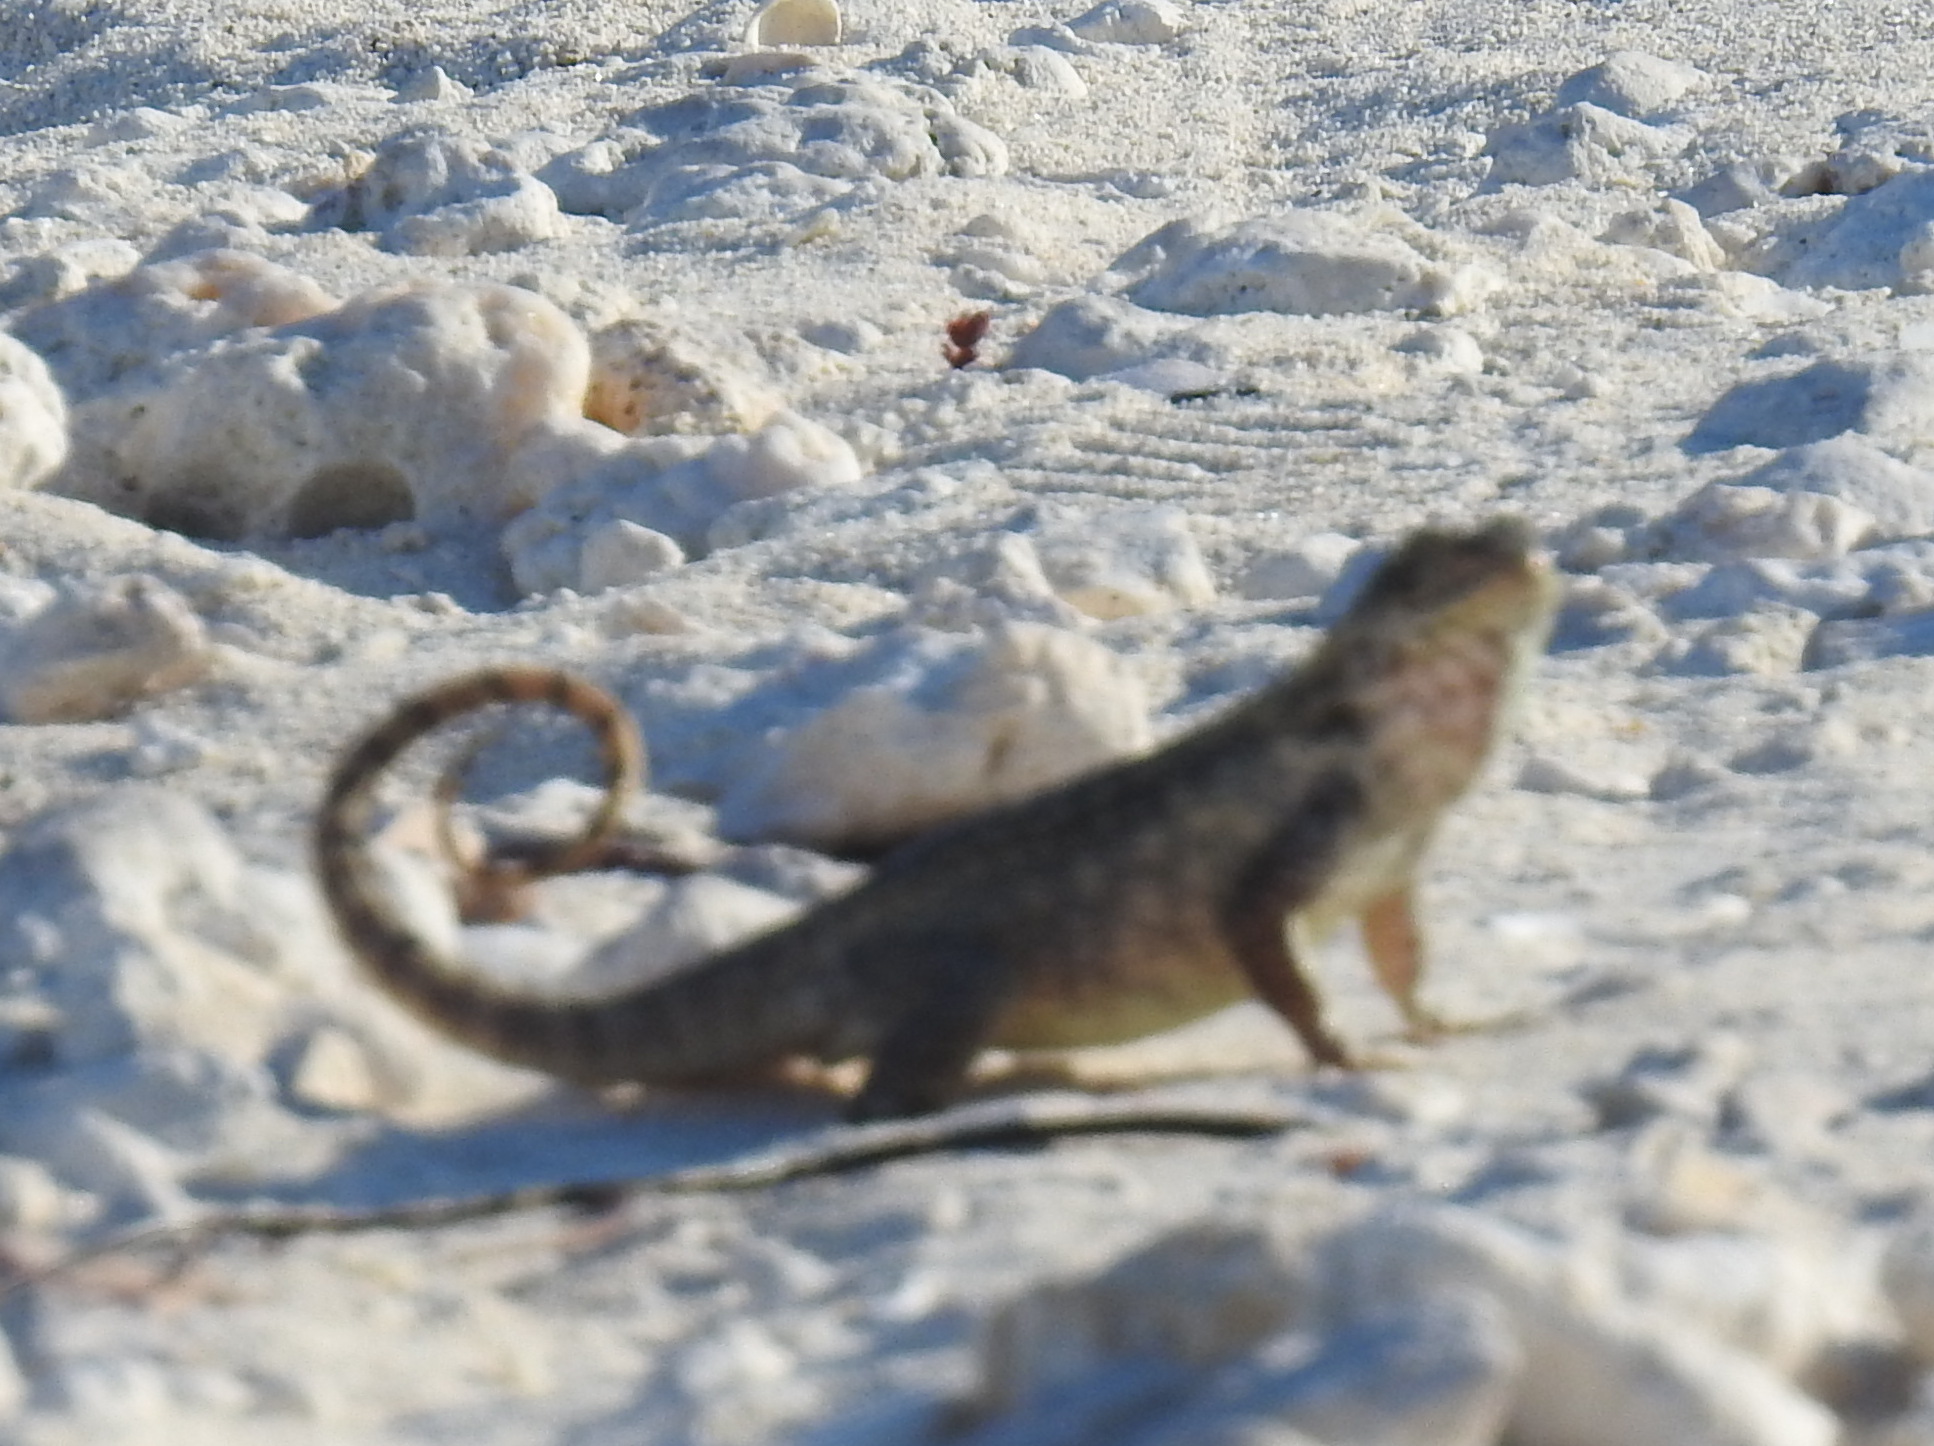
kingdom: Animalia
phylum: Chordata
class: Squamata
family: Leiocephalidae
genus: Leiocephalus
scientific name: Leiocephalus carinatus
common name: Northern curly-tailed lizard
